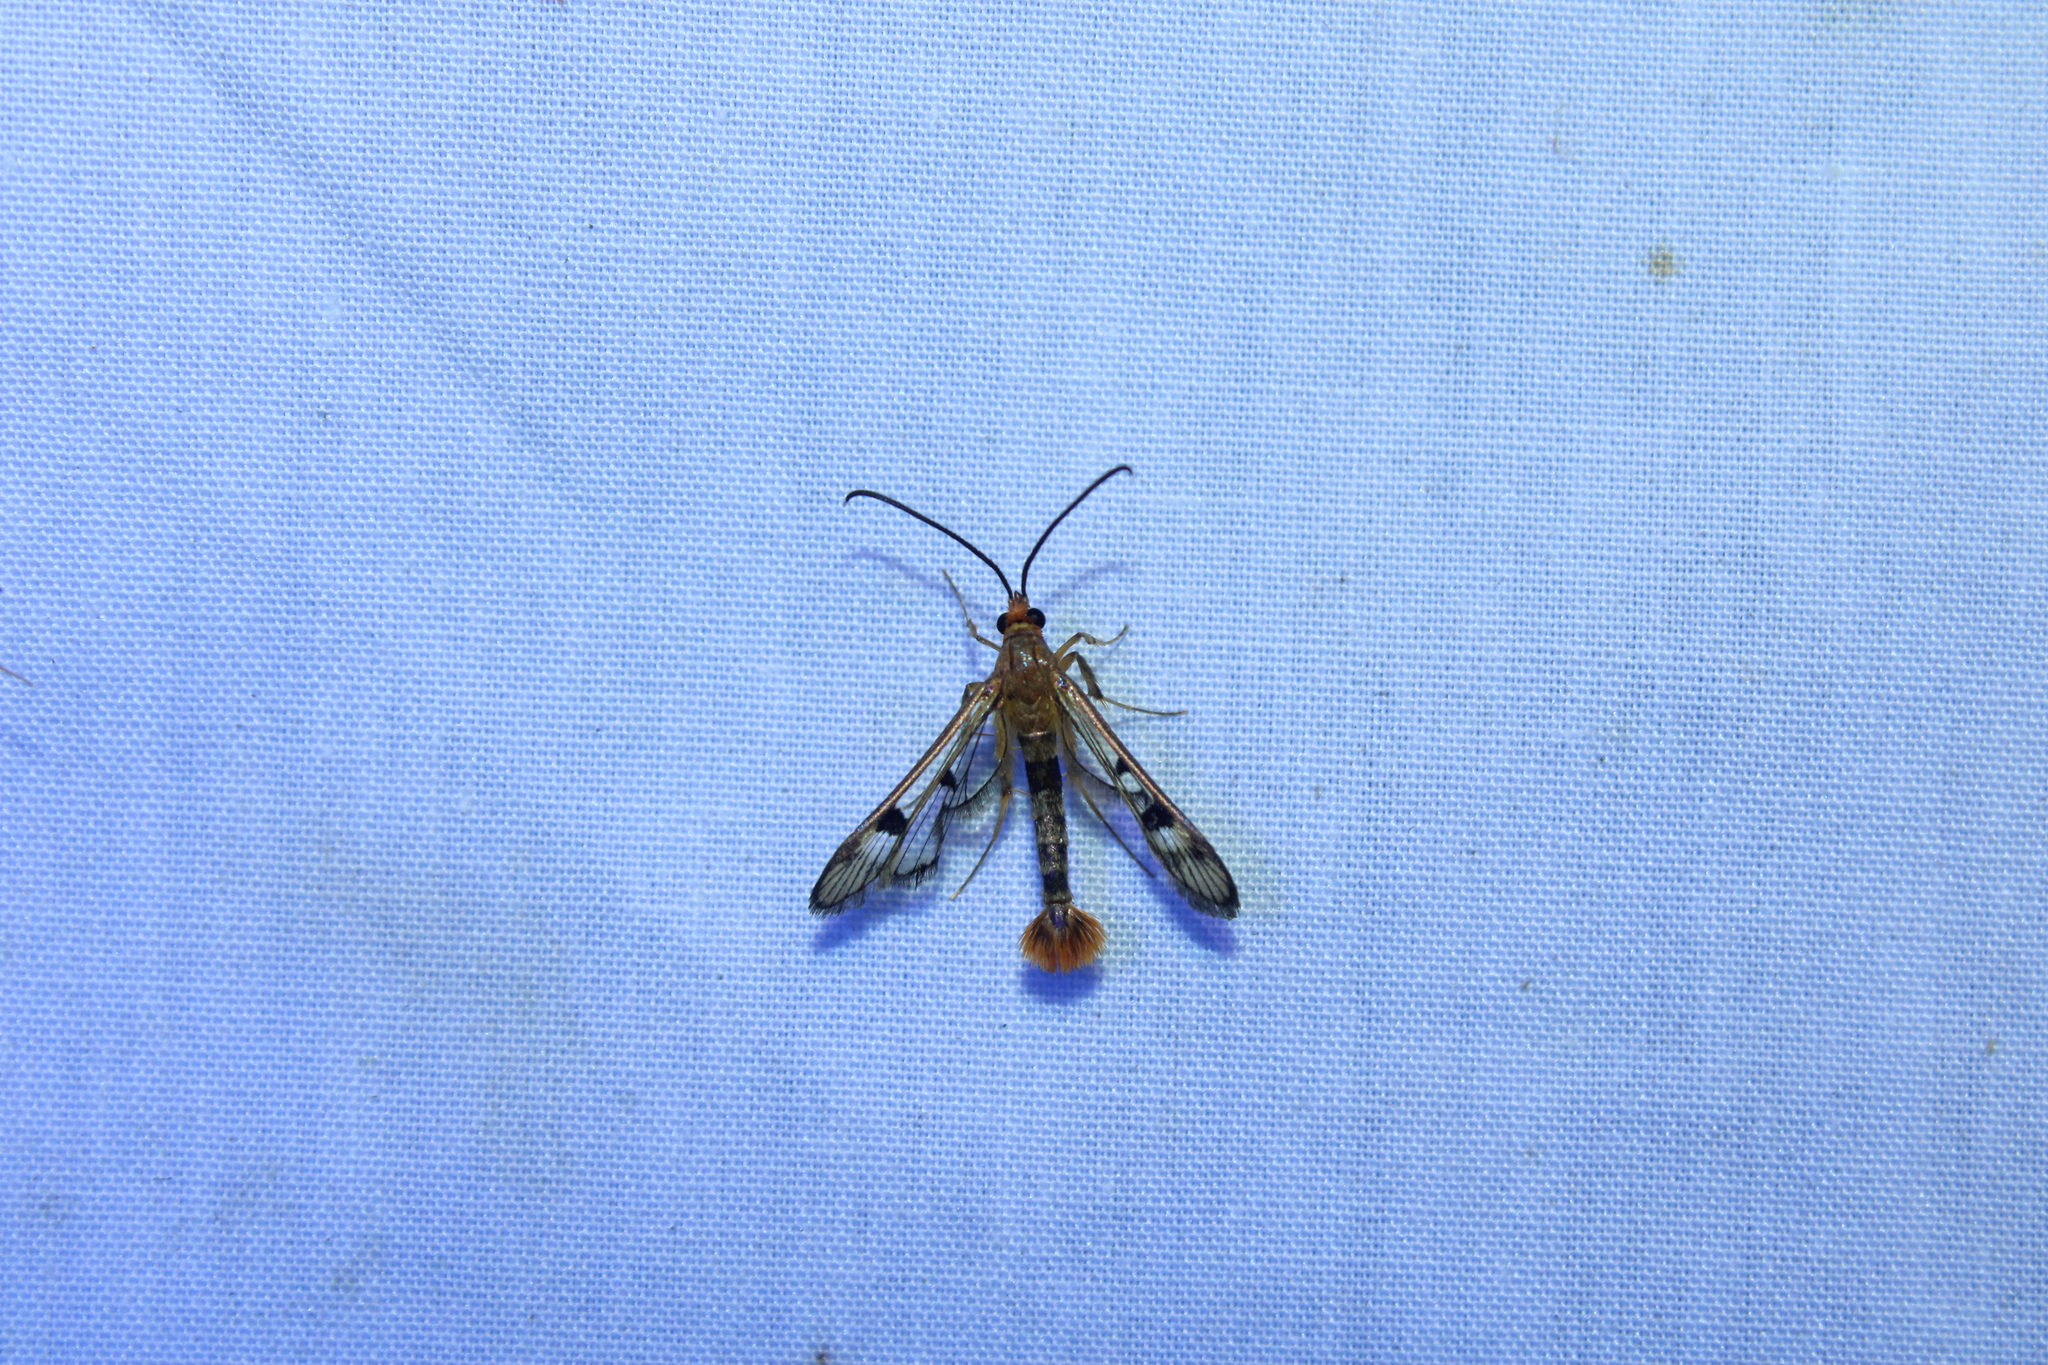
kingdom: Animalia
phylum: Arthropoda
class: Insecta
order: Lepidoptera
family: Sesiidae
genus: Synanthedon
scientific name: Synanthedon acerni
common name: Maple callus borer moth
